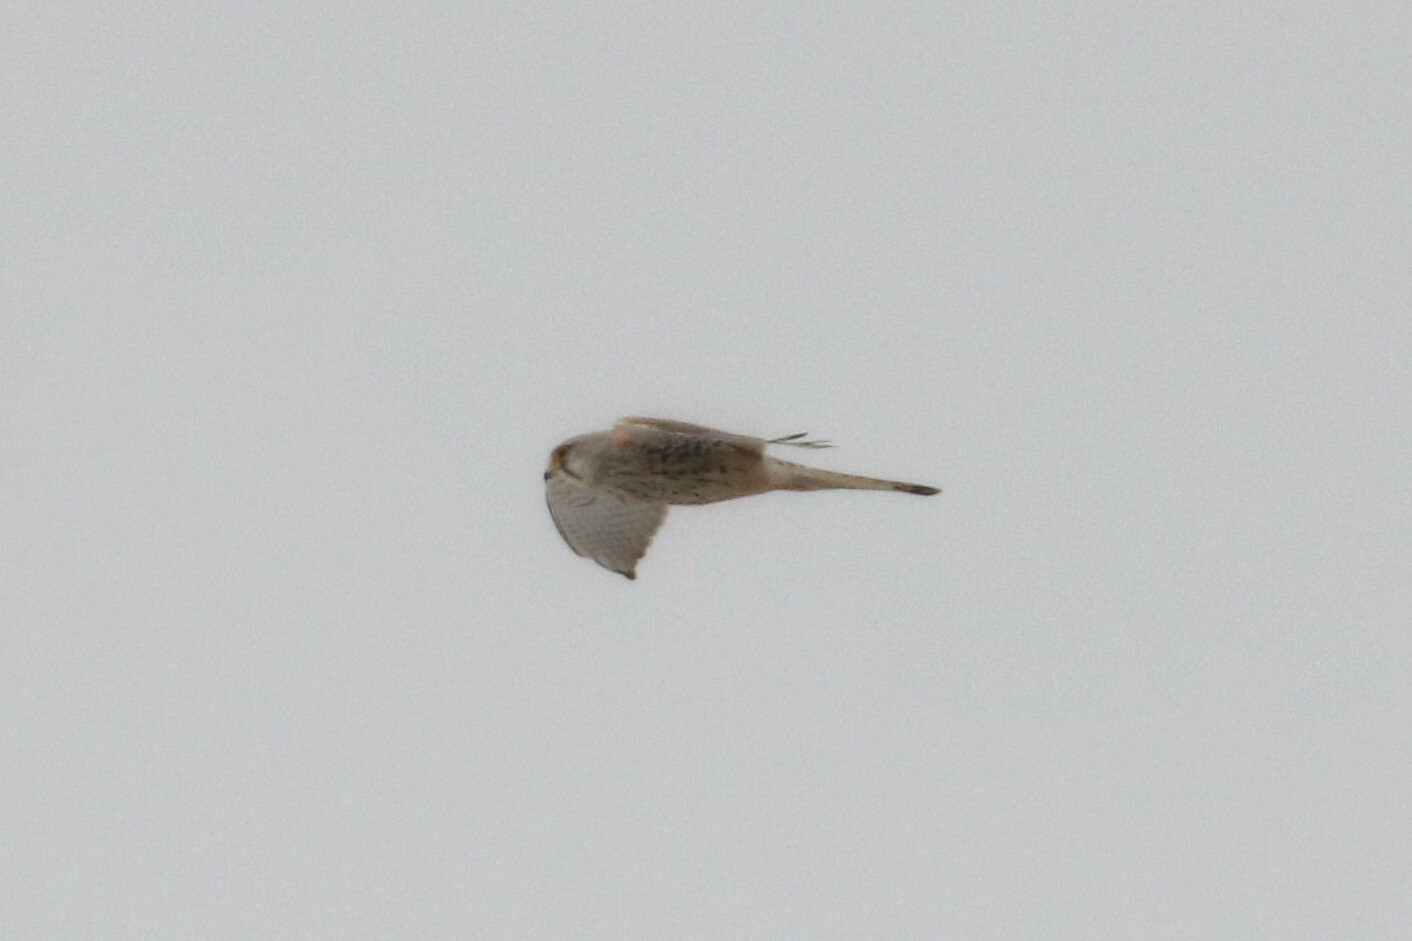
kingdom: Animalia
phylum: Chordata
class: Aves
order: Falconiformes
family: Falconidae
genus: Falco
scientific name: Falco tinnunculus
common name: Common kestrel
